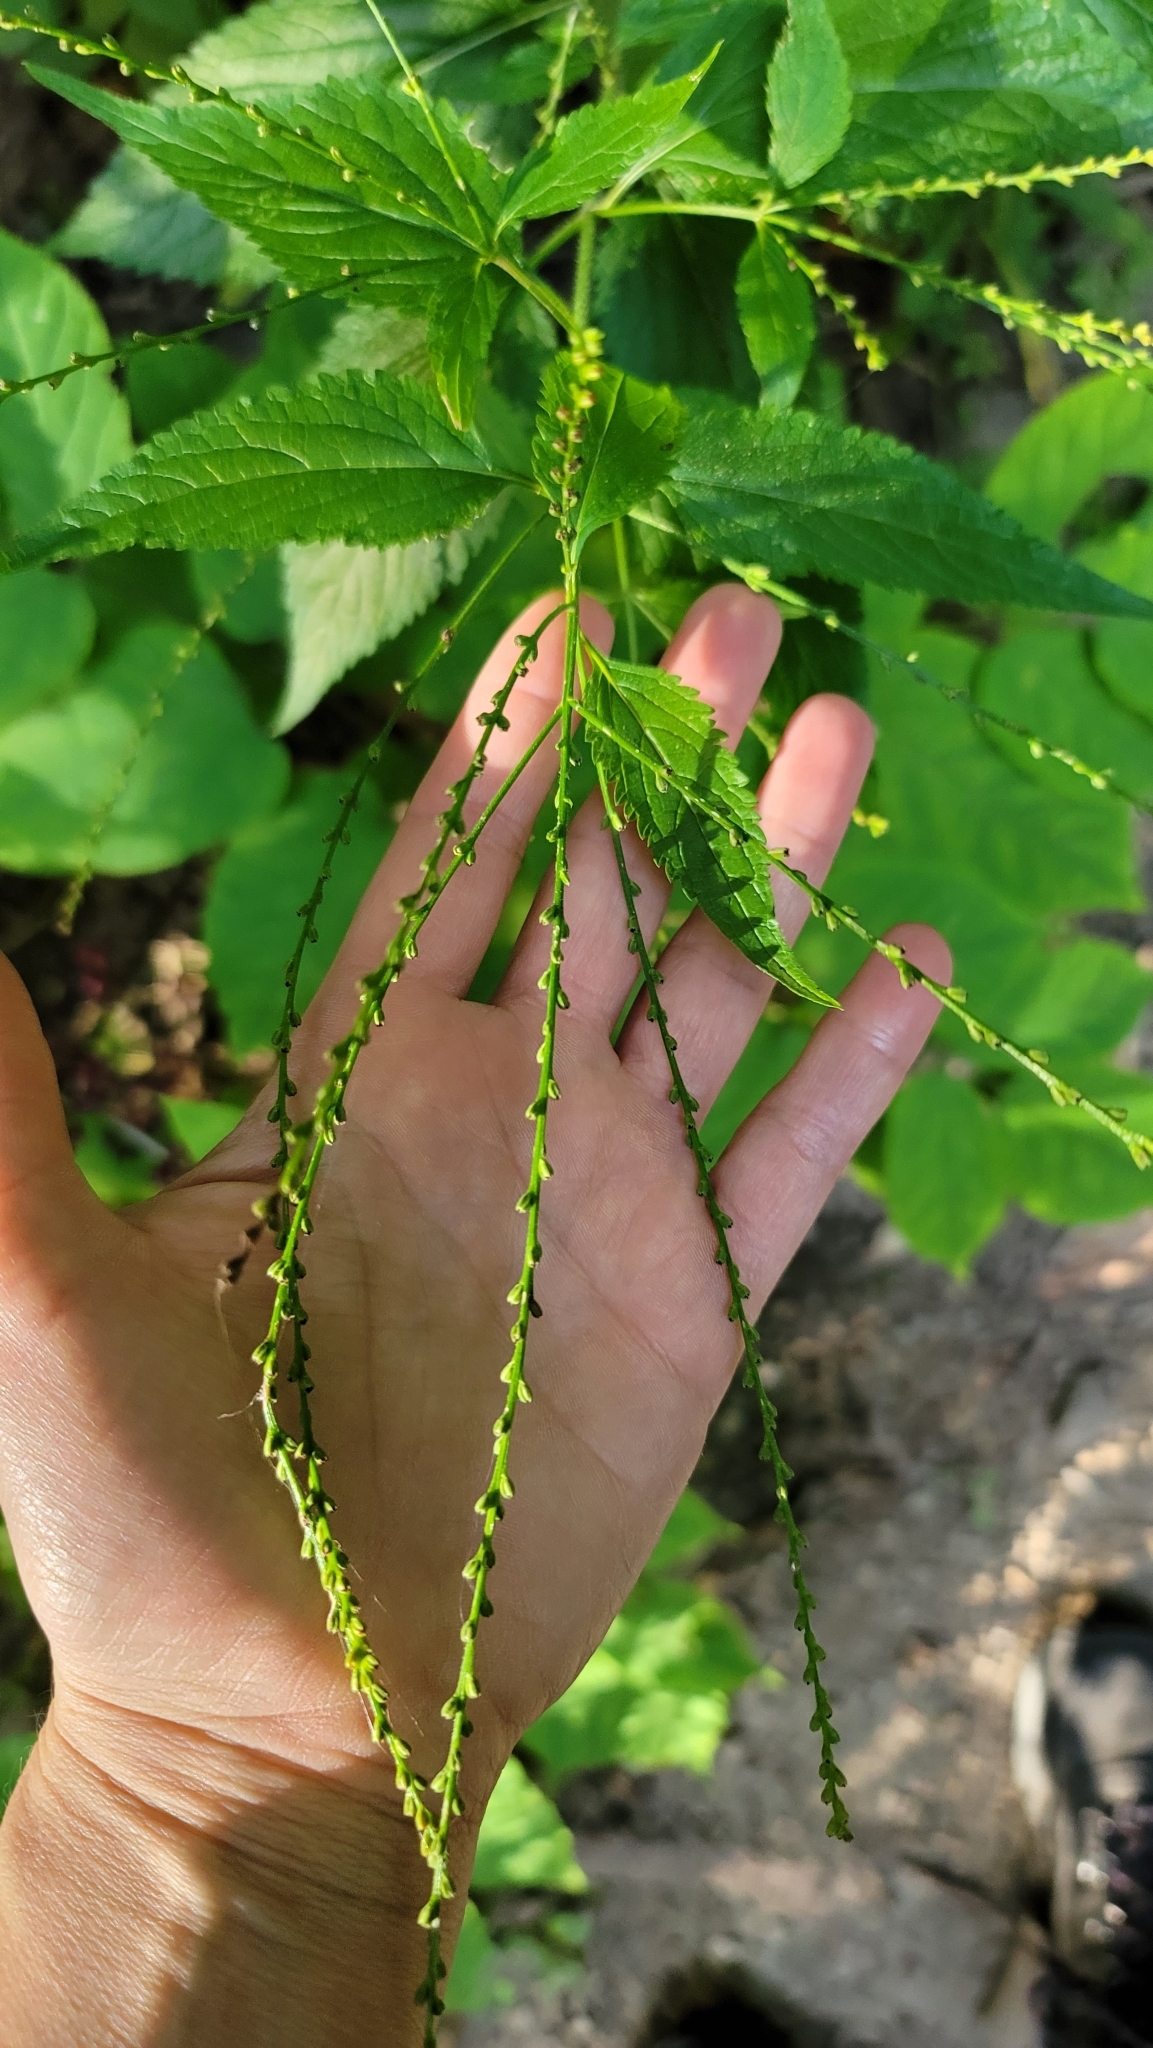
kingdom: Plantae
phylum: Tracheophyta
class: Magnoliopsida
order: Lamiales
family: Verbenaceae
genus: Verbena
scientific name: Verbena urticifolia
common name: Nettle-leaved vervain
